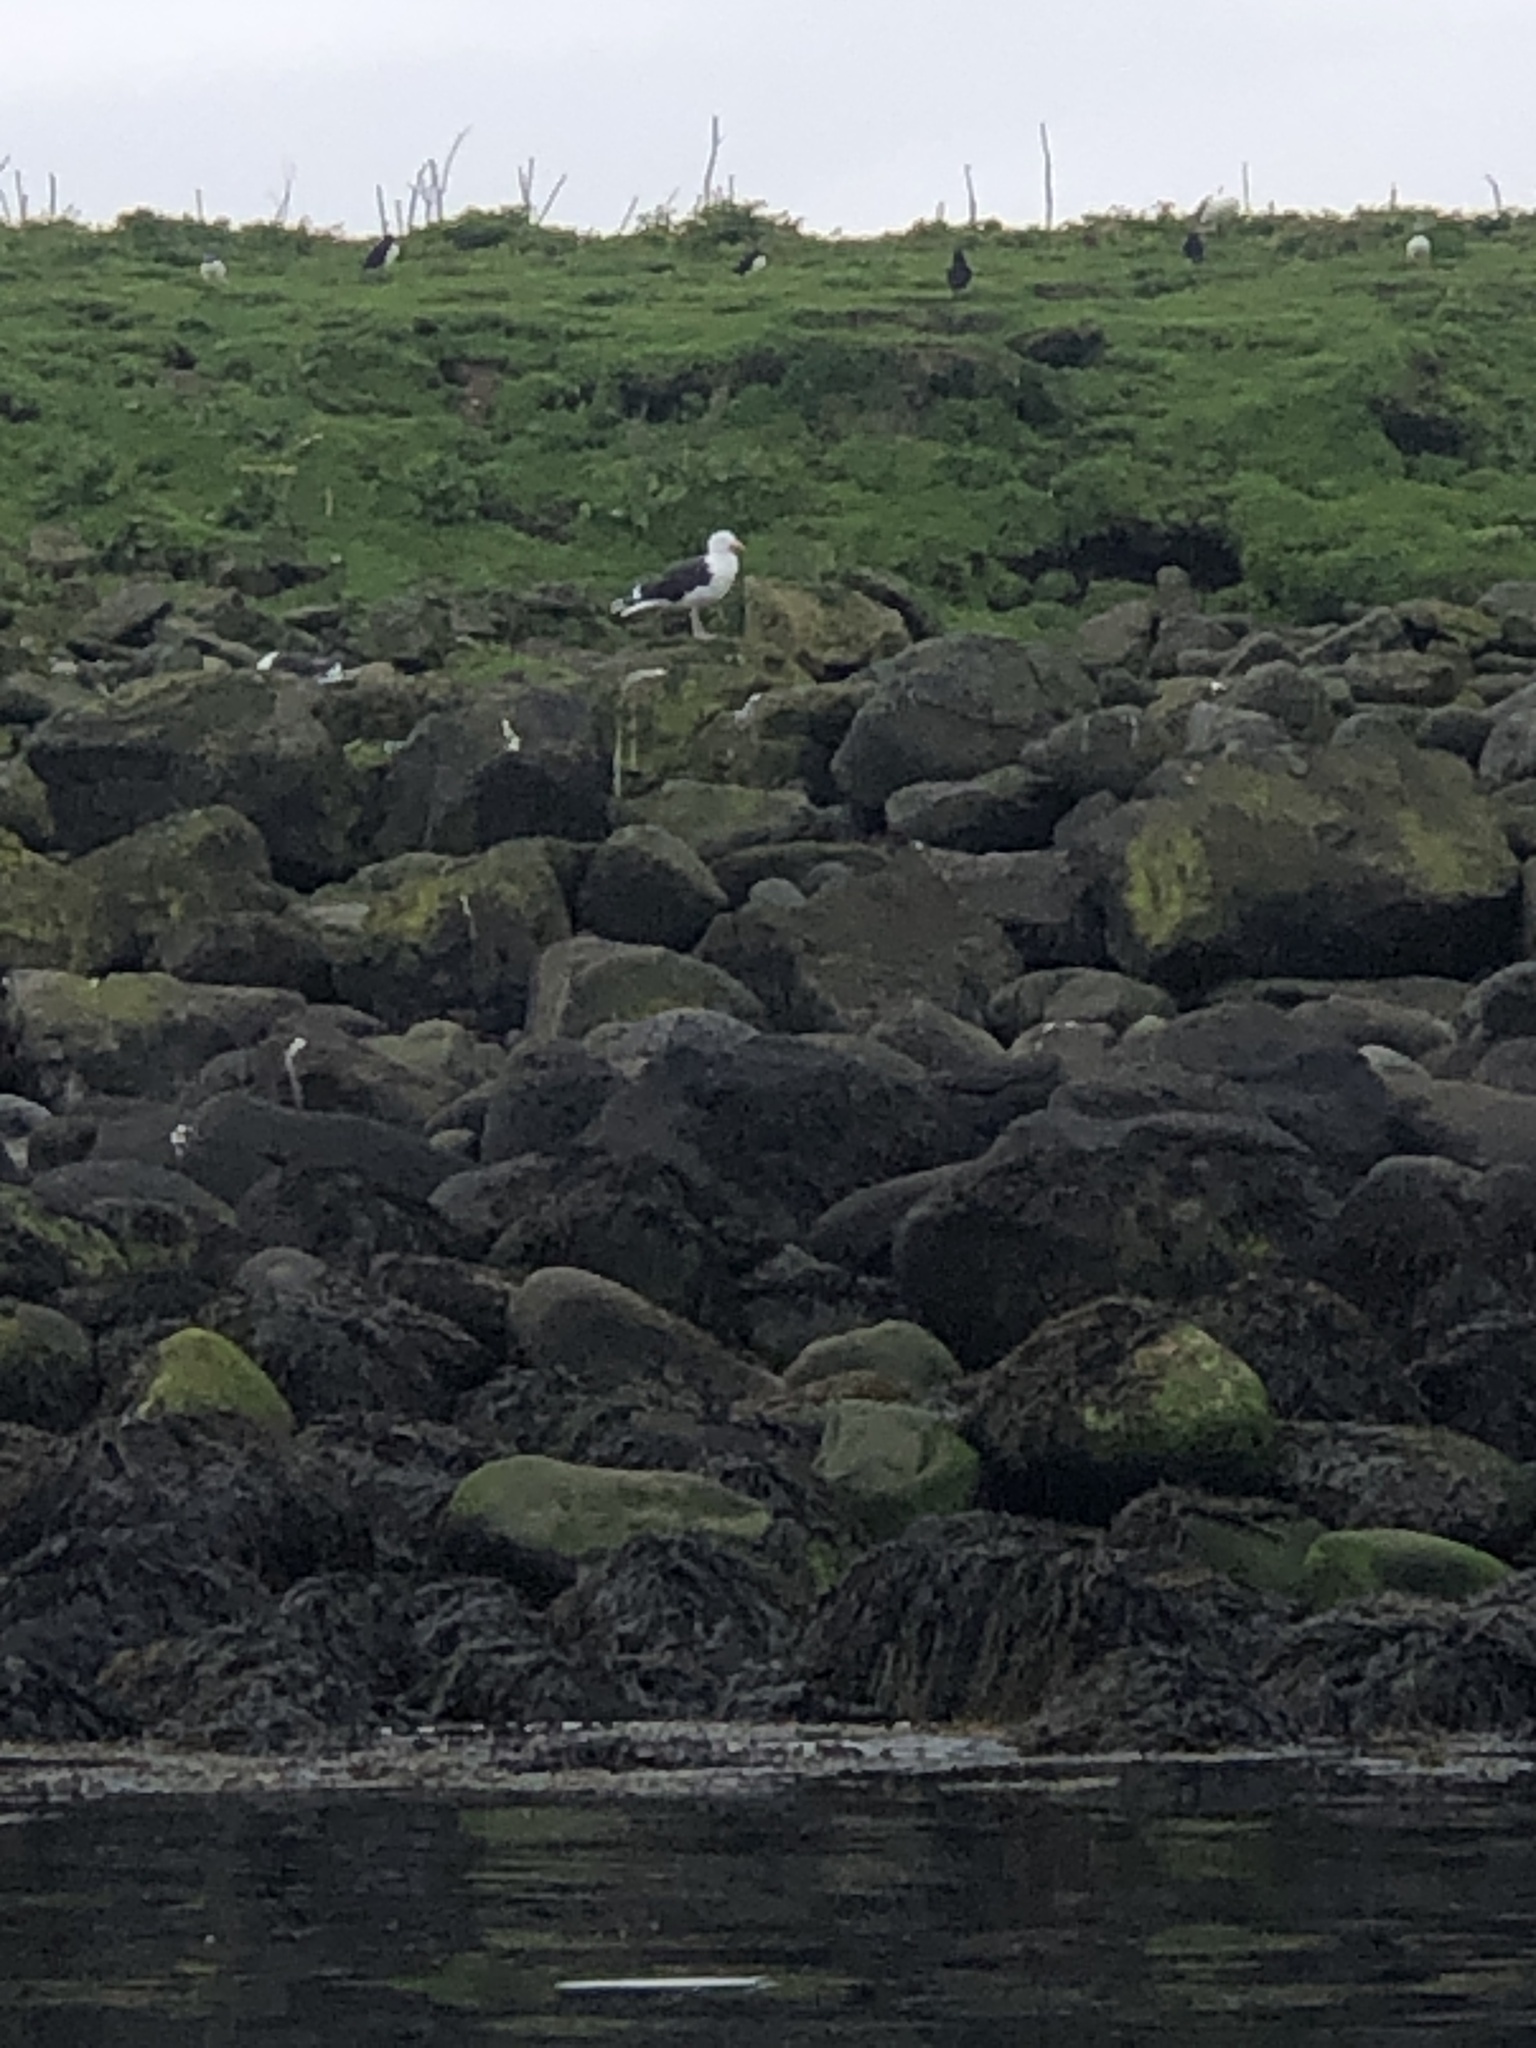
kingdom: Animalia
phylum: Chordata
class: Aves
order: Charadriiformes
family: Laridae
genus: Larus
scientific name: Larus marinus
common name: Great black-backed gull
